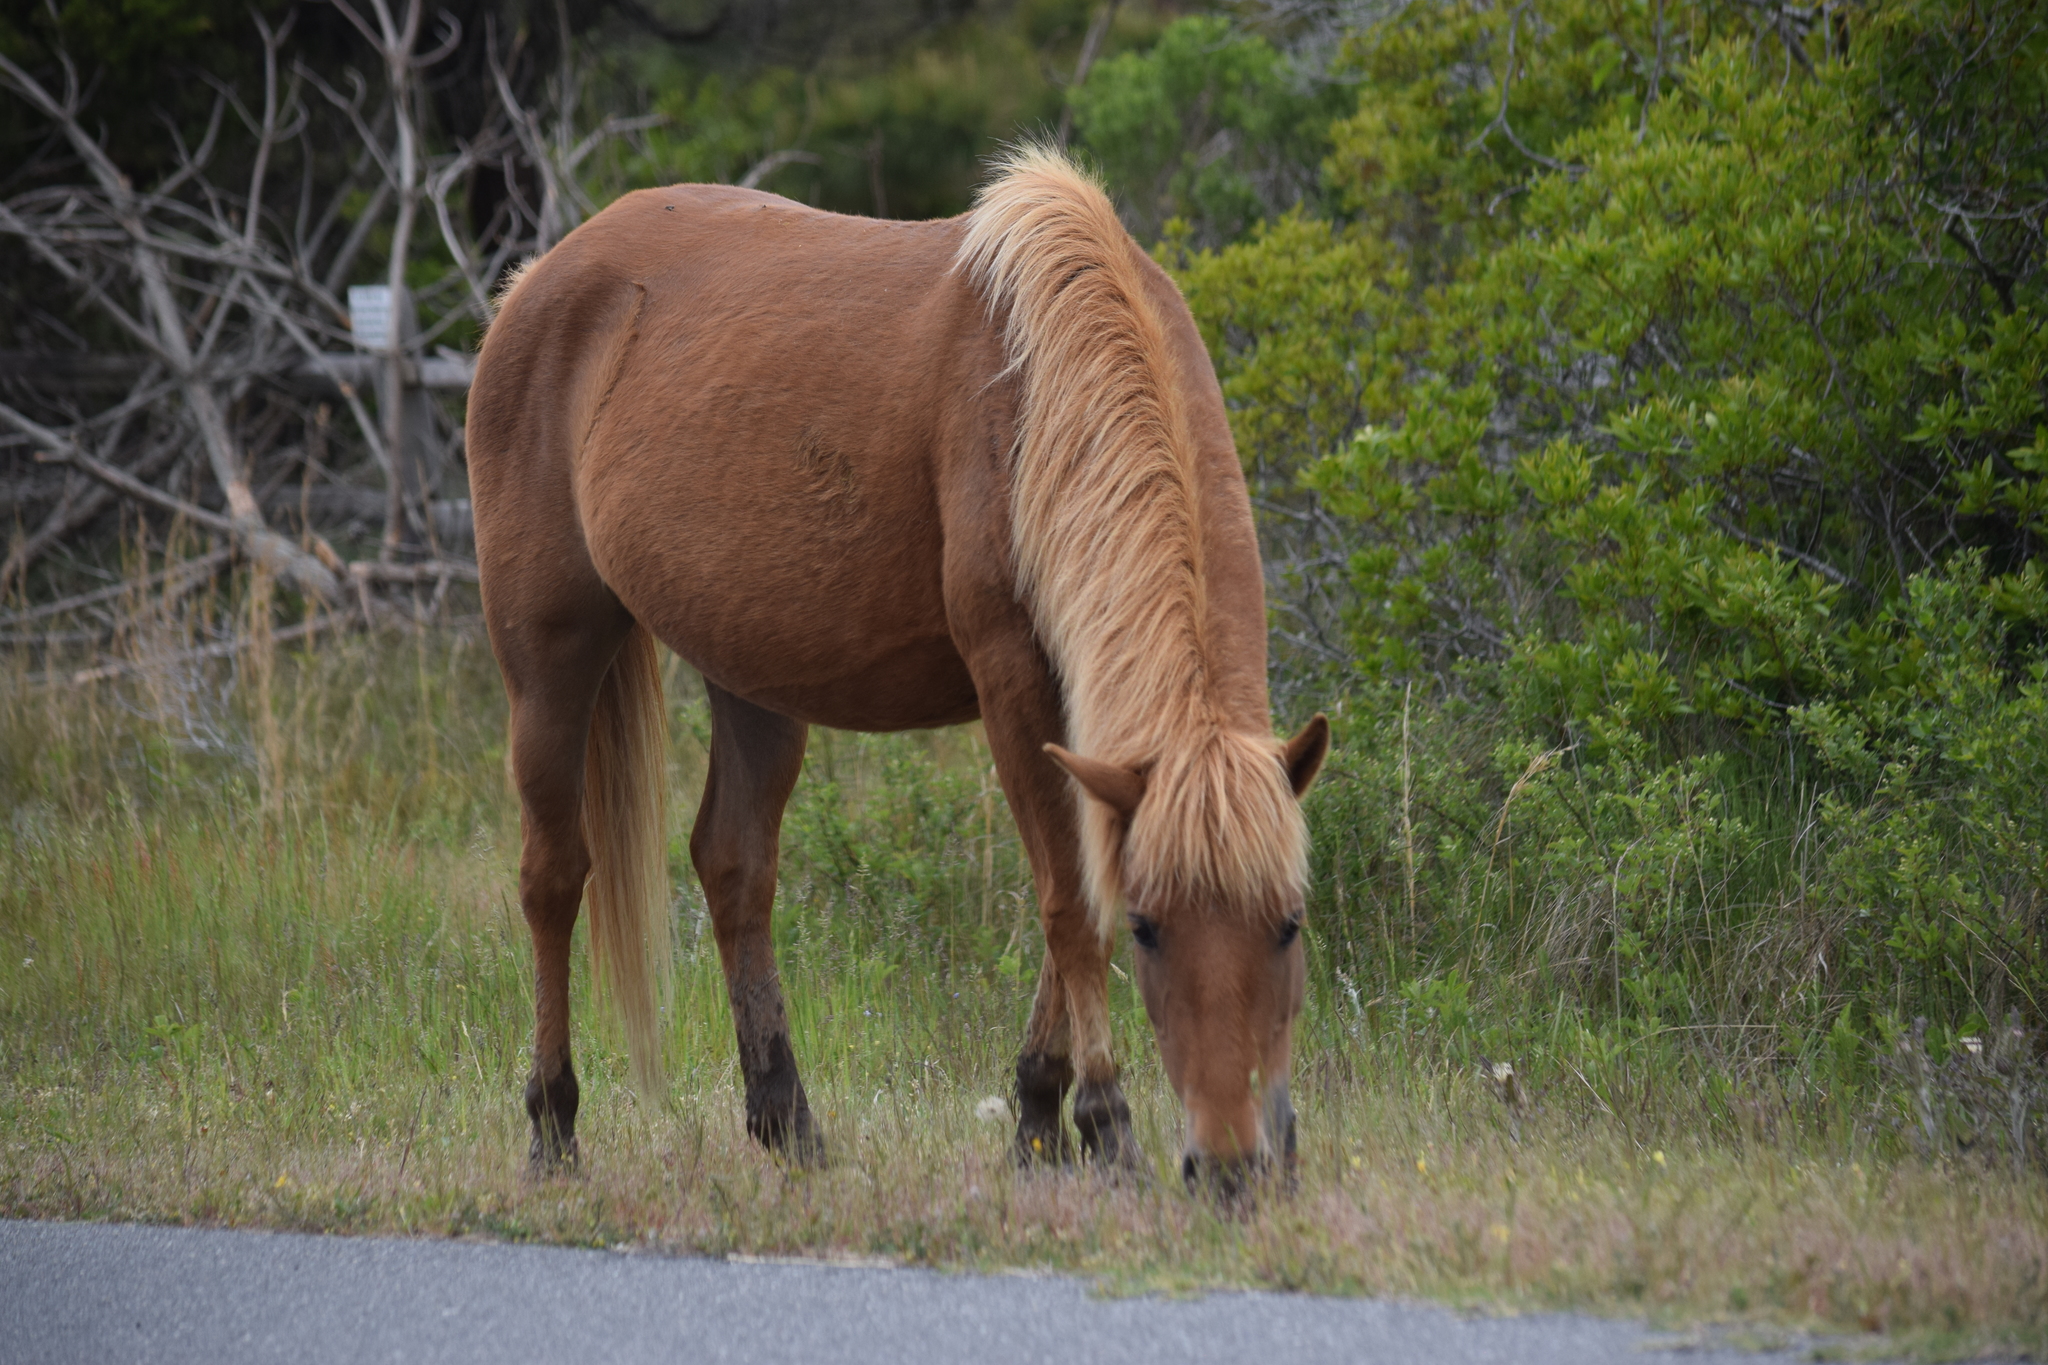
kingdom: Animalia
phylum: Chordata
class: Mammalia
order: Perissodactyla
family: Equidae
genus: Equus
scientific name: Equus caballus
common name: Horse
